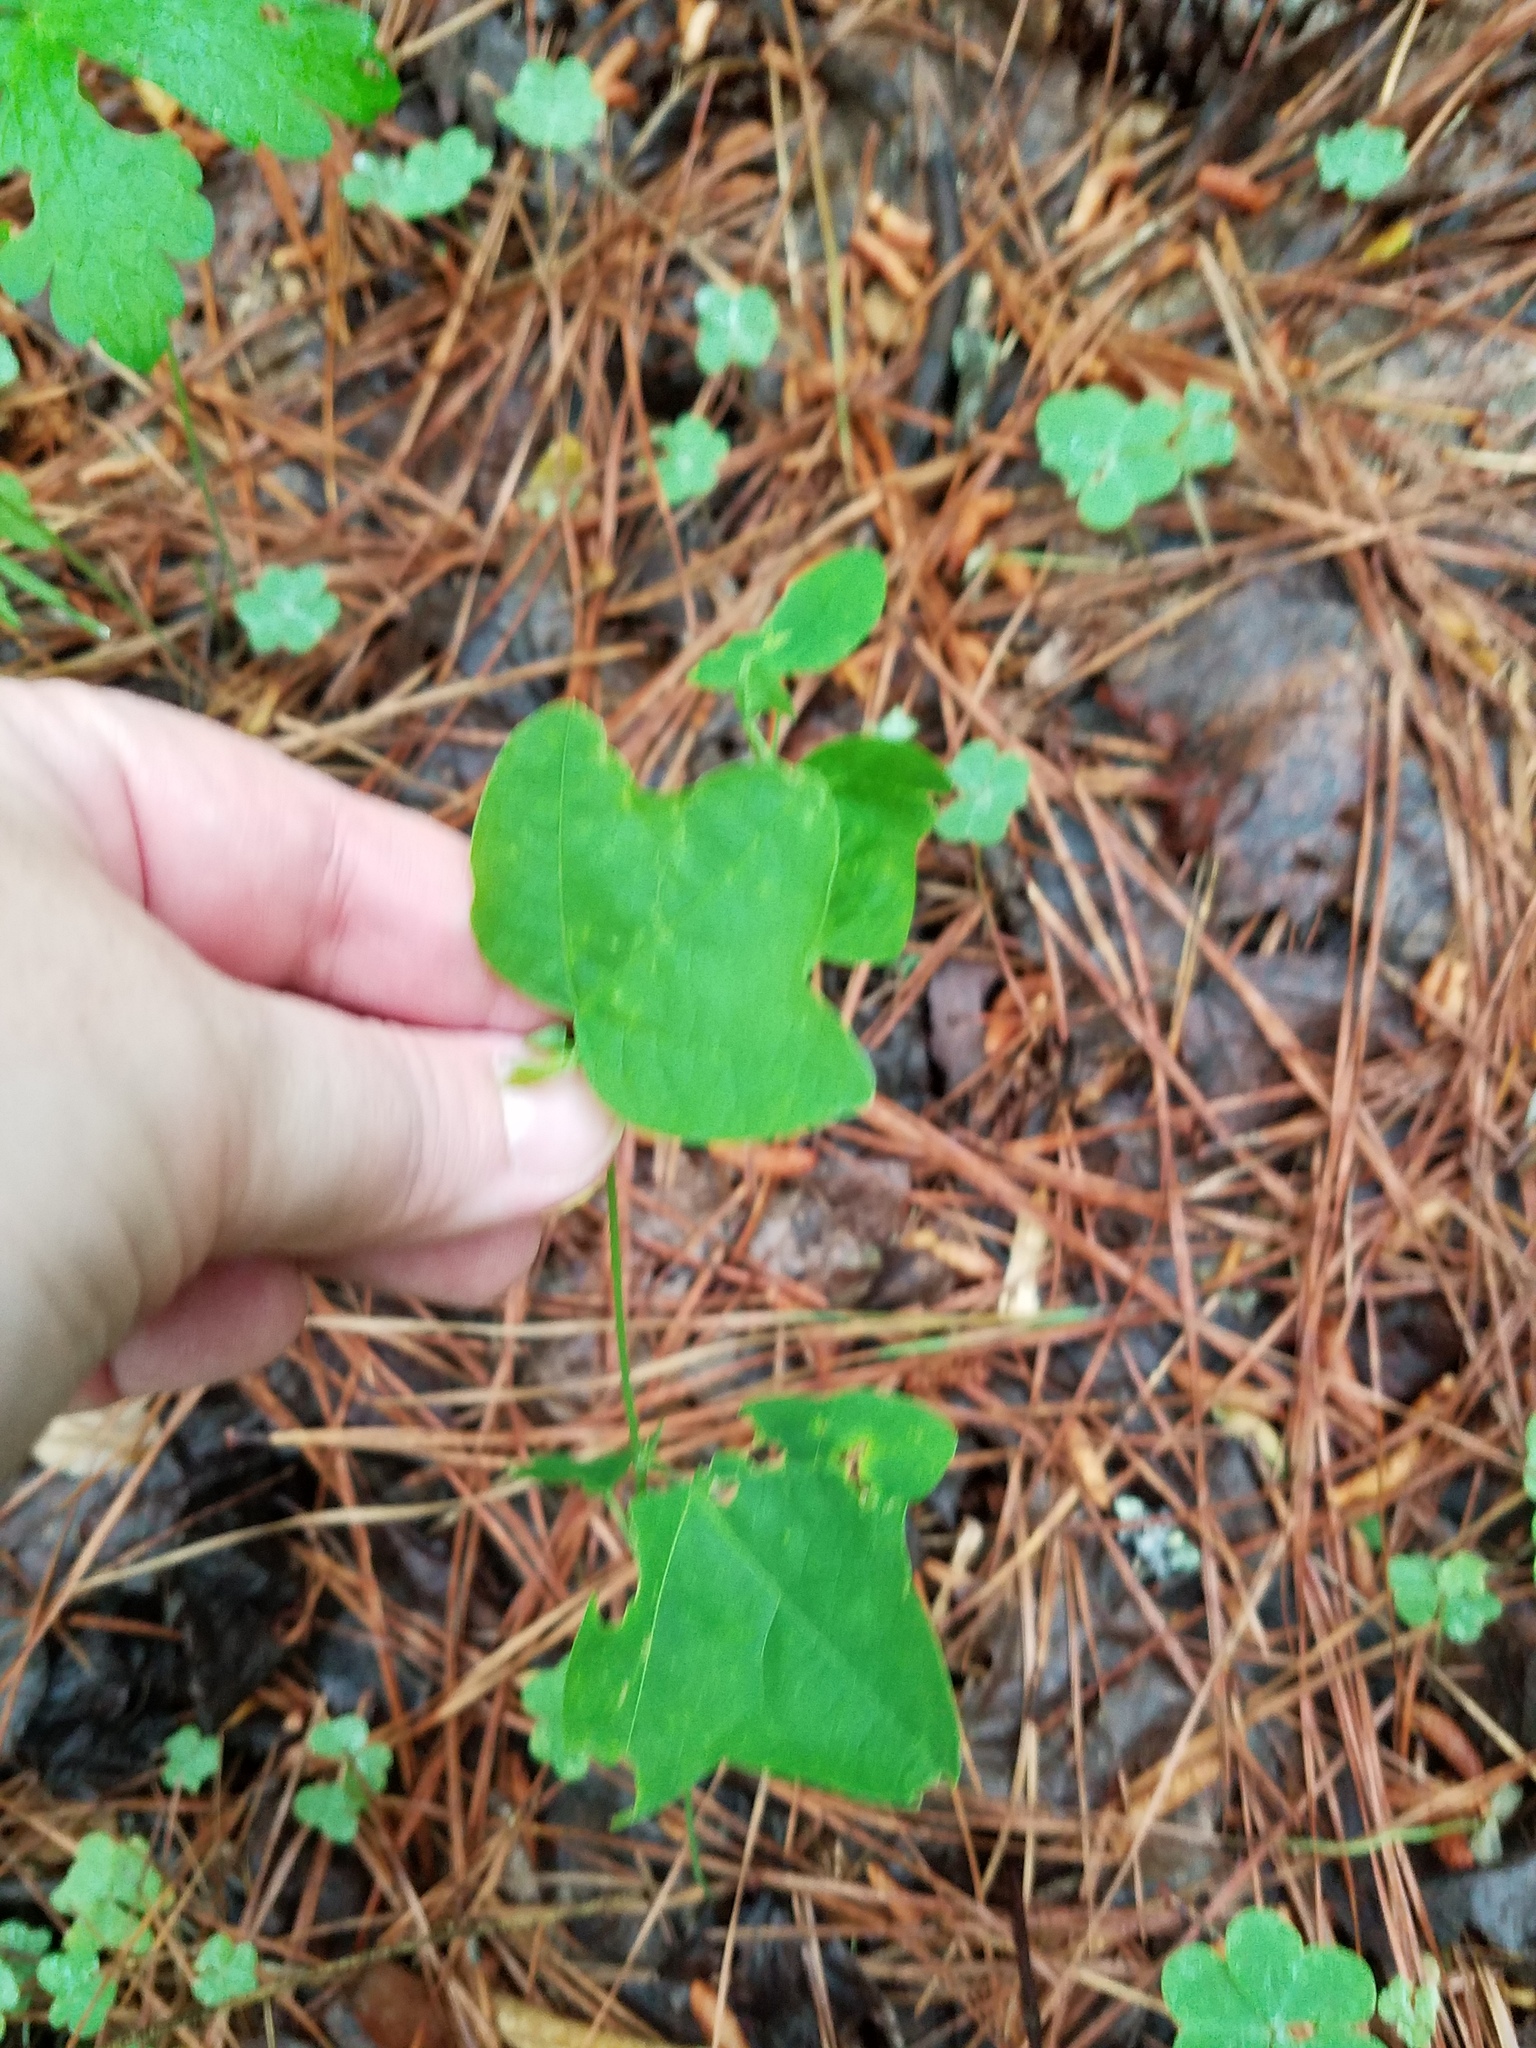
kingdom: Plantae
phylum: Tracheophyta
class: Magnoliopsida
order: Malpighiales
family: Passifloraceae
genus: Passiflora
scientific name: Passiflora lutea
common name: Yellow passionflower
